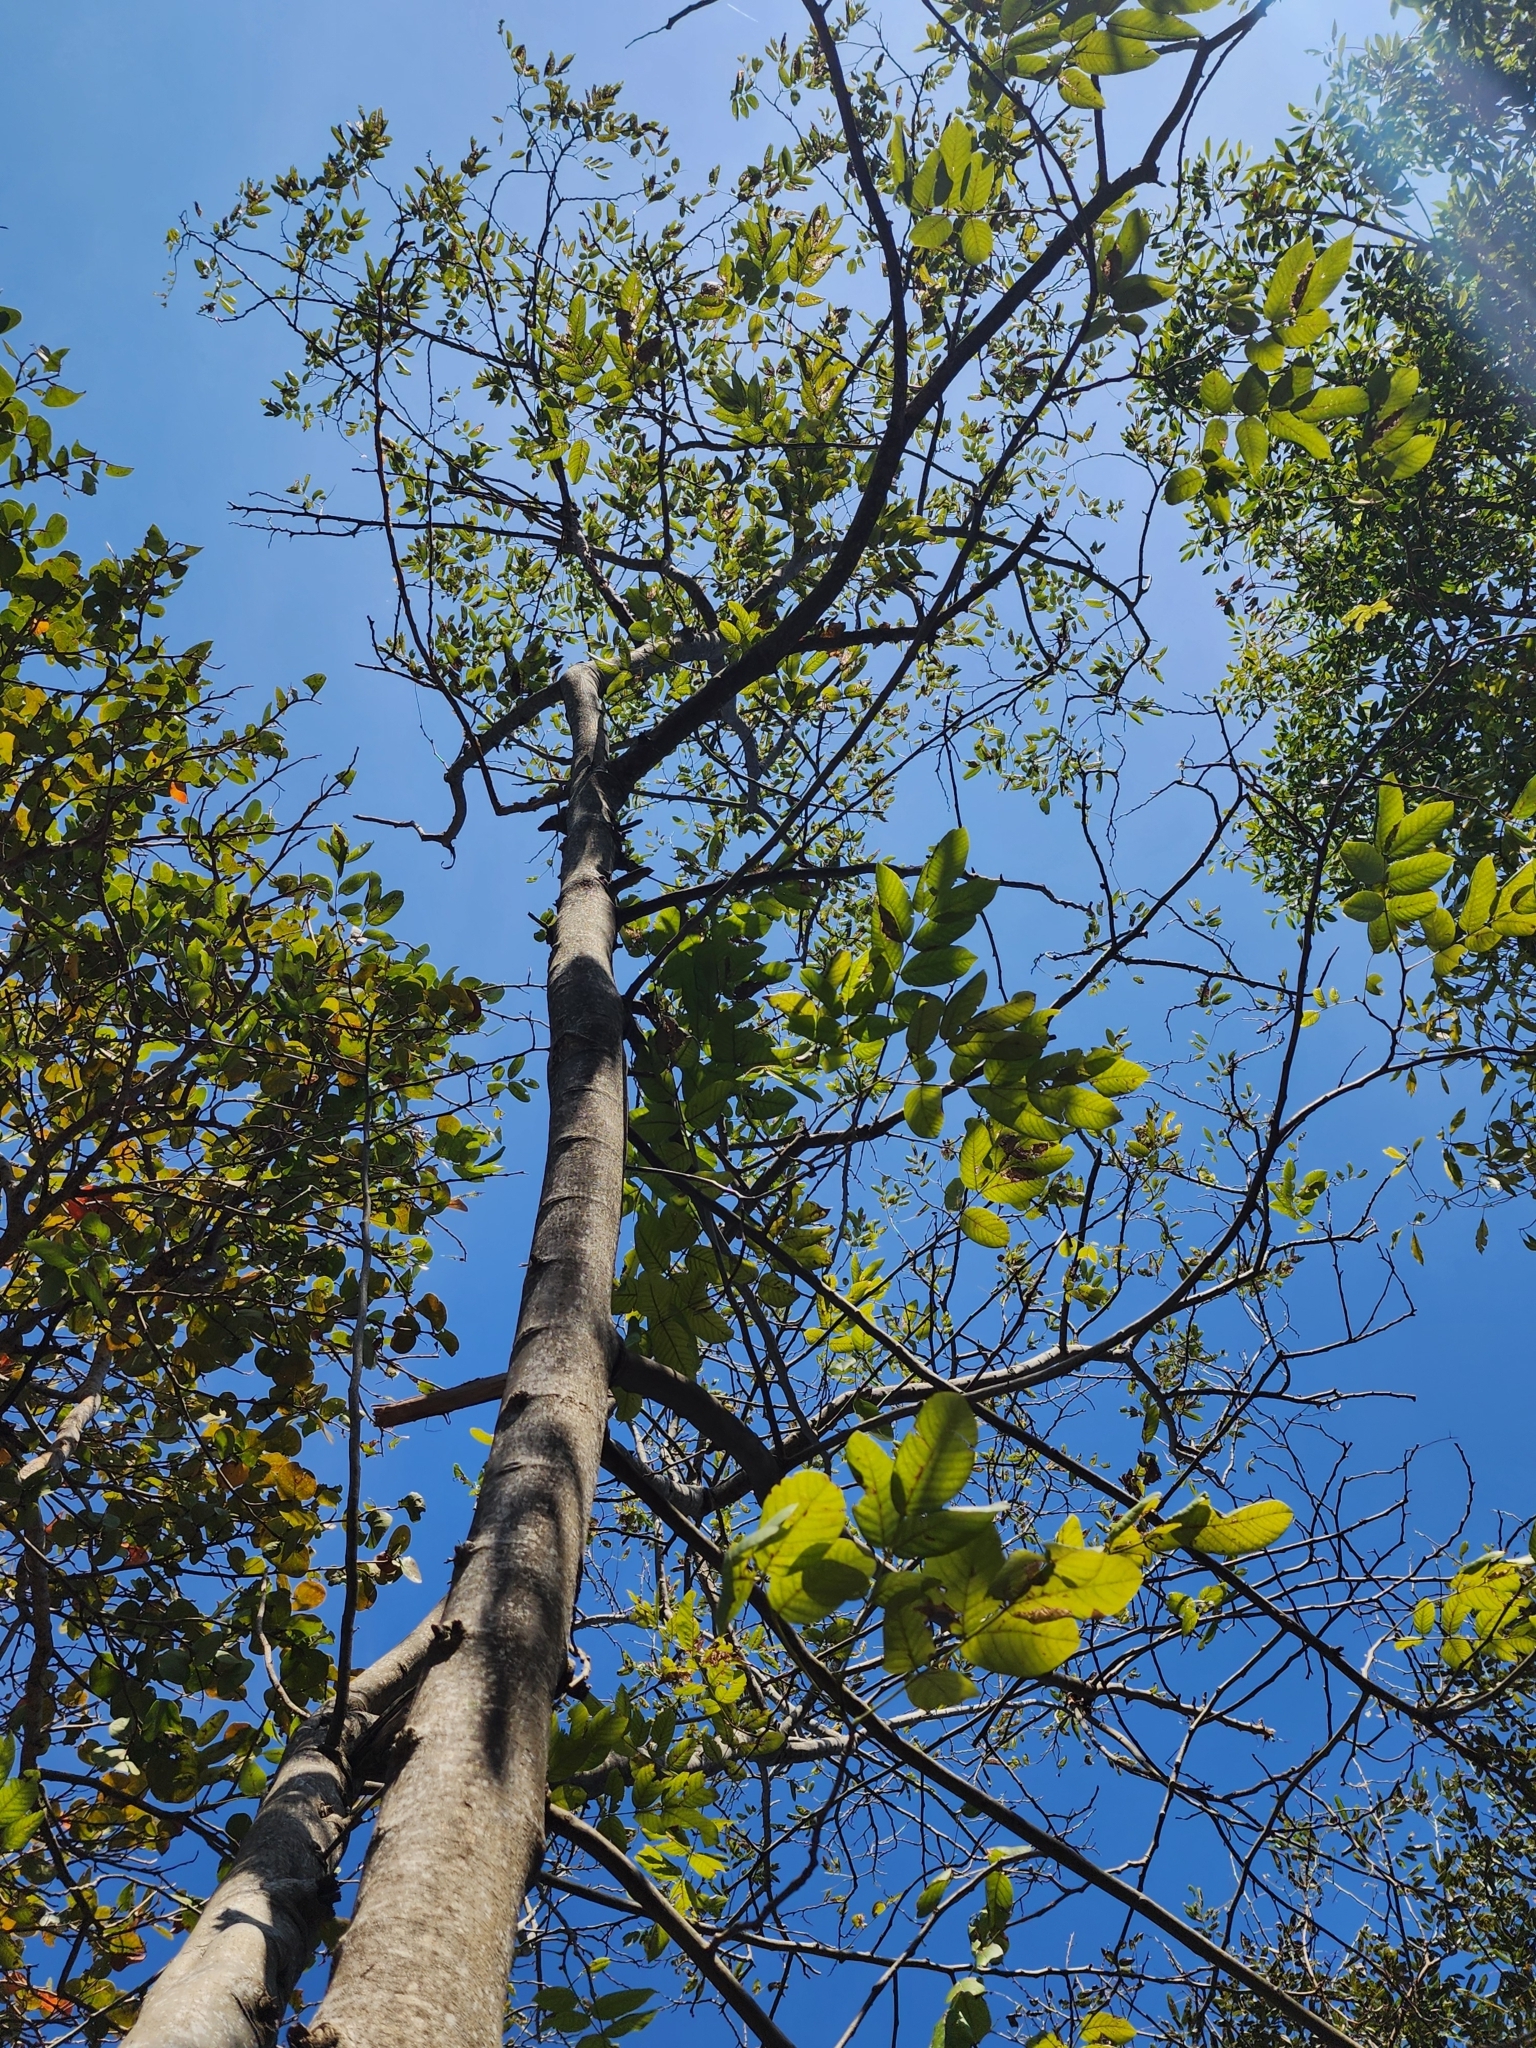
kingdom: Plantae
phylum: Tracheophyta
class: Magnoliopsida
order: Fabales
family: Fabaceae
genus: Piscidia
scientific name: Piscidia piscipula
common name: Florida fishpoison tree
